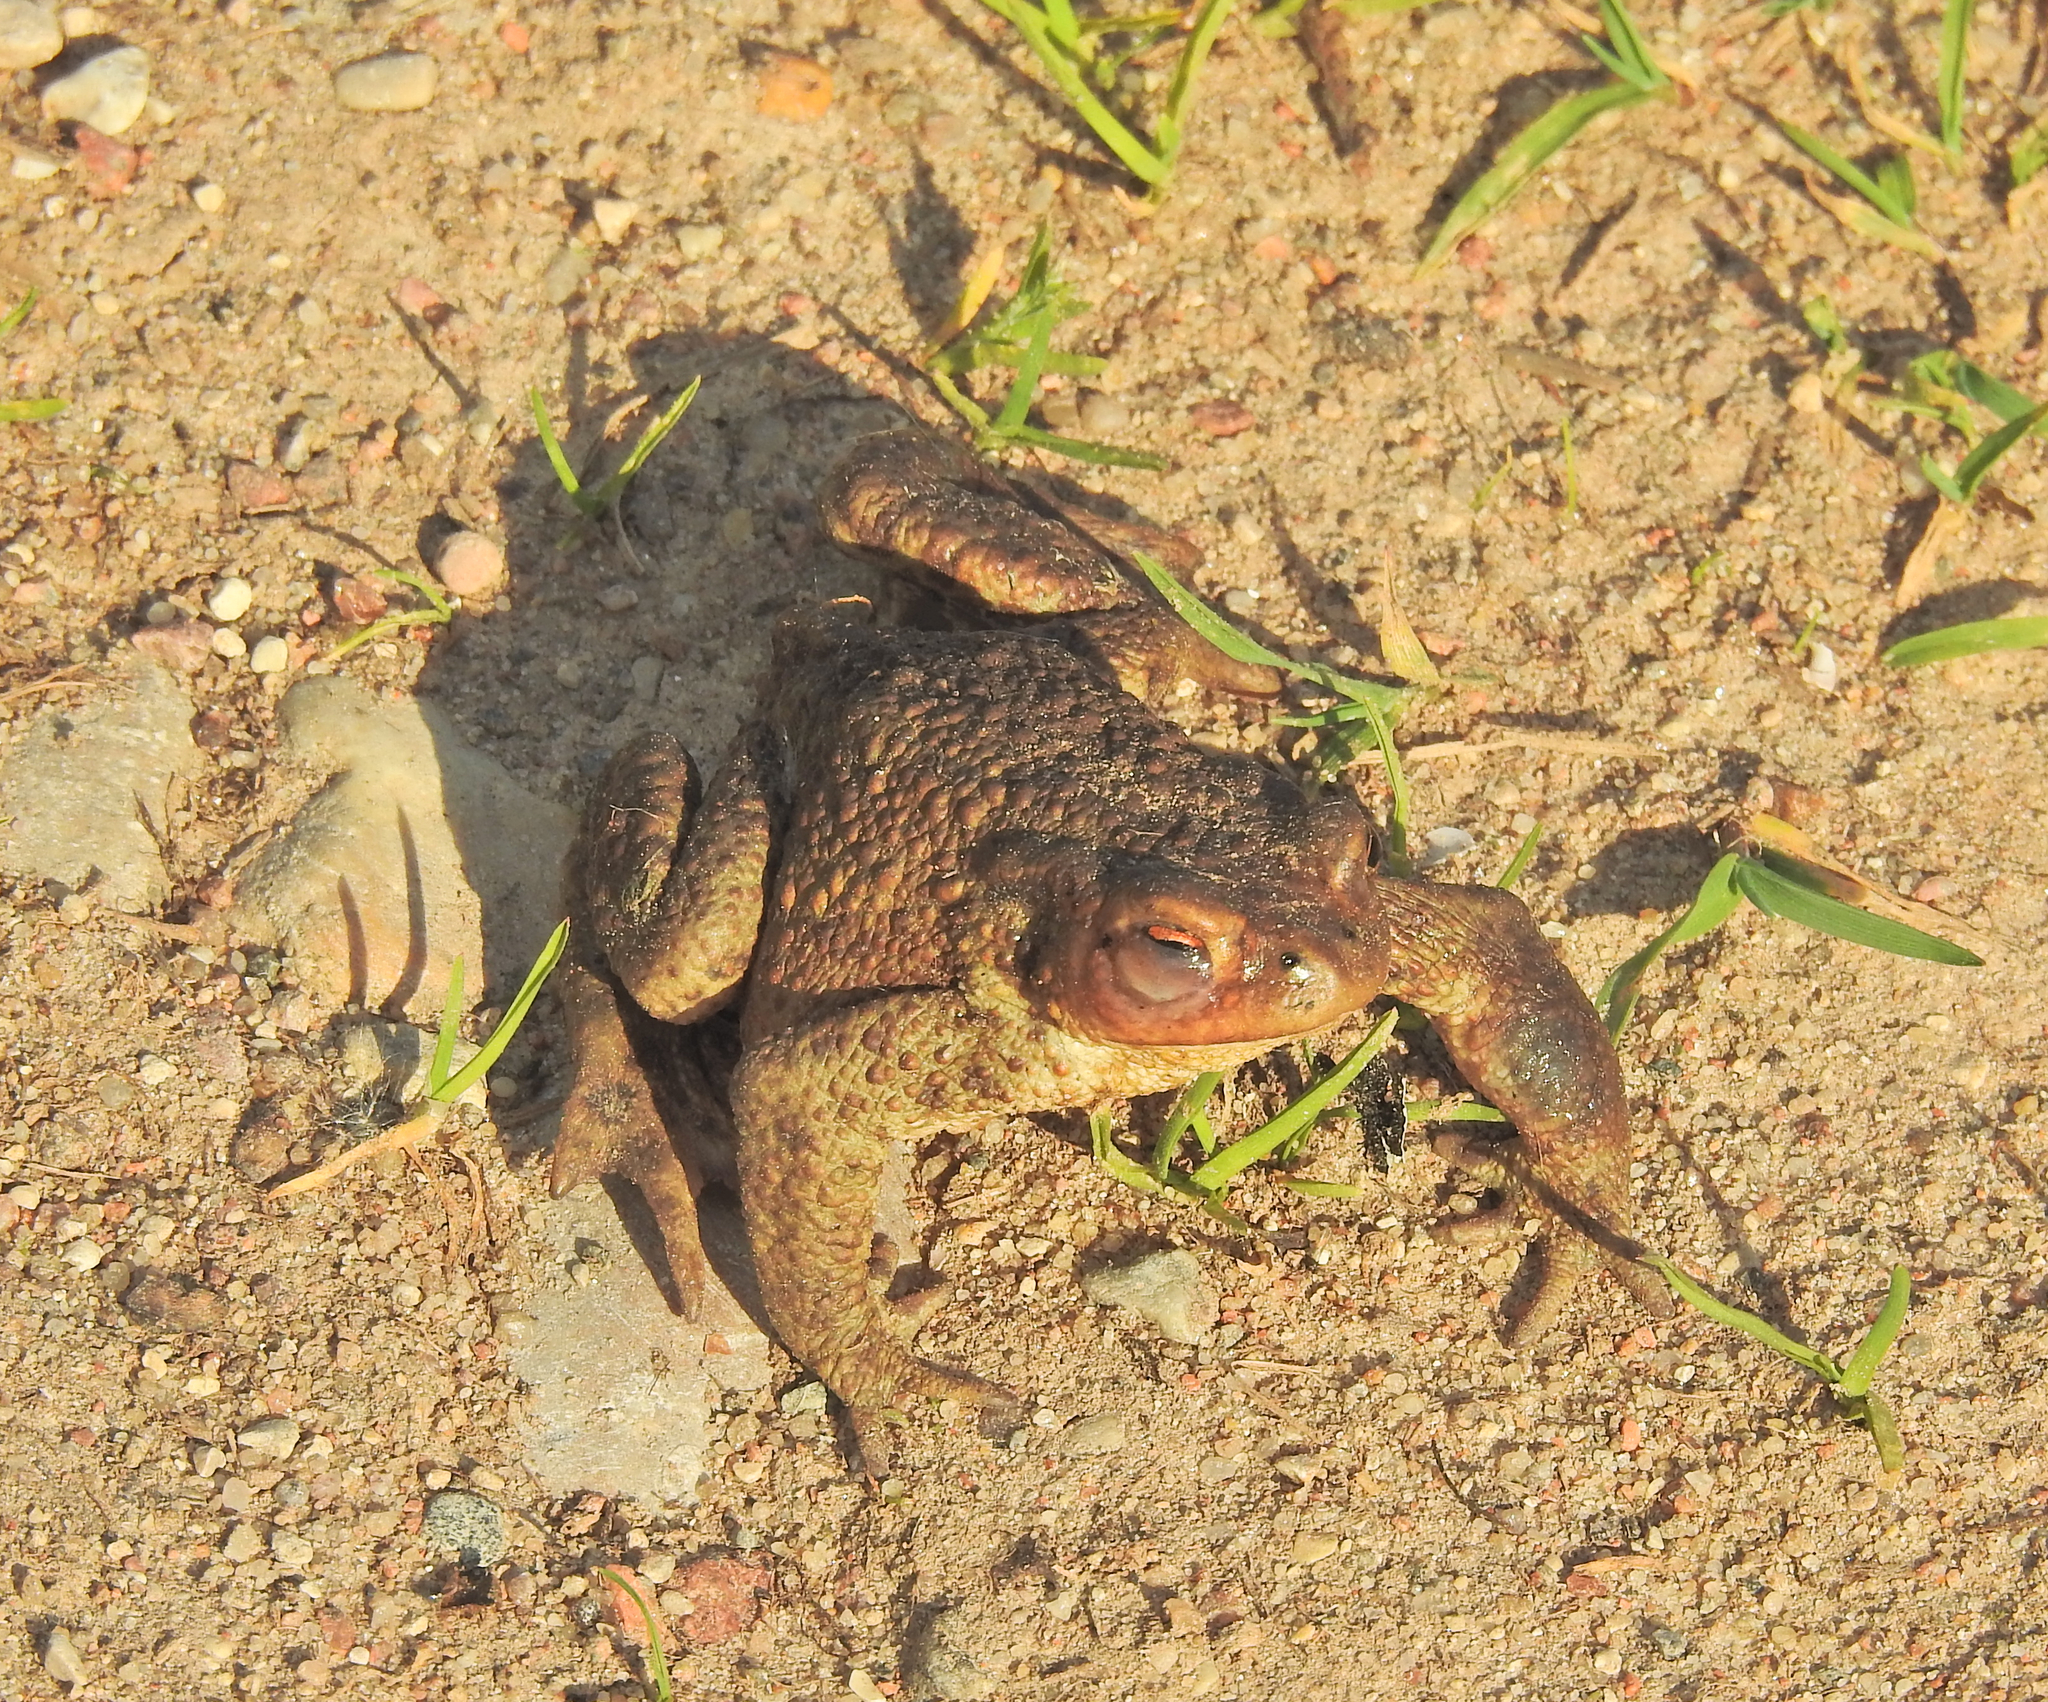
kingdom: Animalia
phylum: Chordata
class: Amphibia
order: Anura
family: Bufonidae
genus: Bufo
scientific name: Bufo bufo
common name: Common toad
